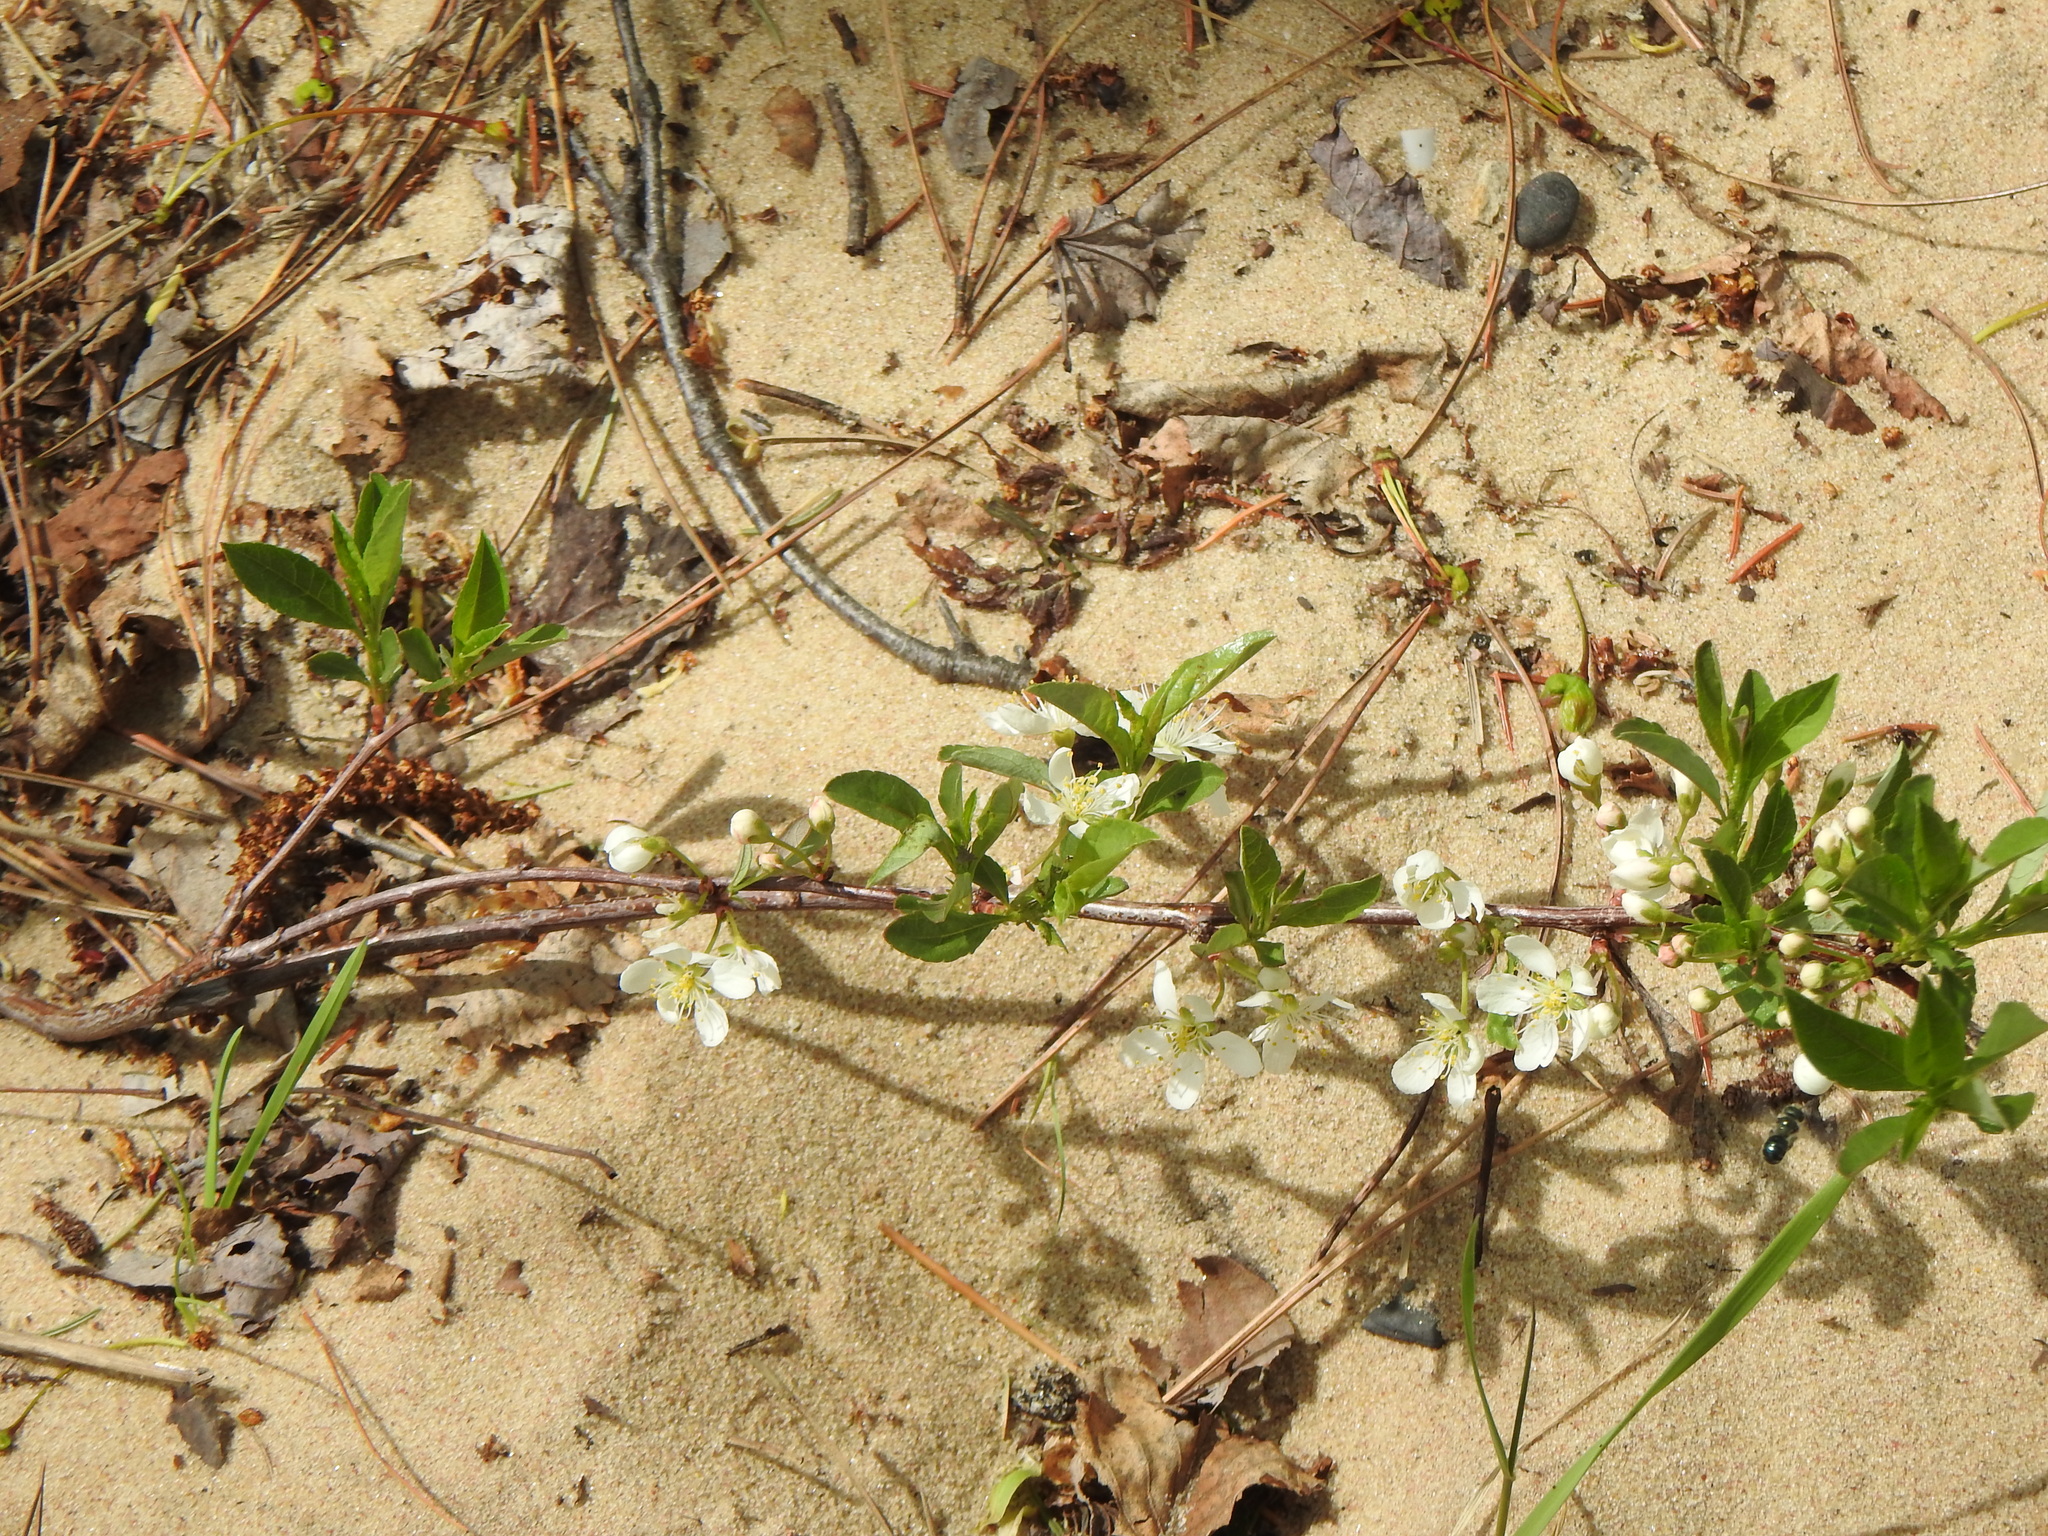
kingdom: Plantae
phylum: Tracheophyta
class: Magnoliopsida
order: Rosales
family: Rosaceae
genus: Prunus
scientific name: Prunus pumila
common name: Dwarf cherry
